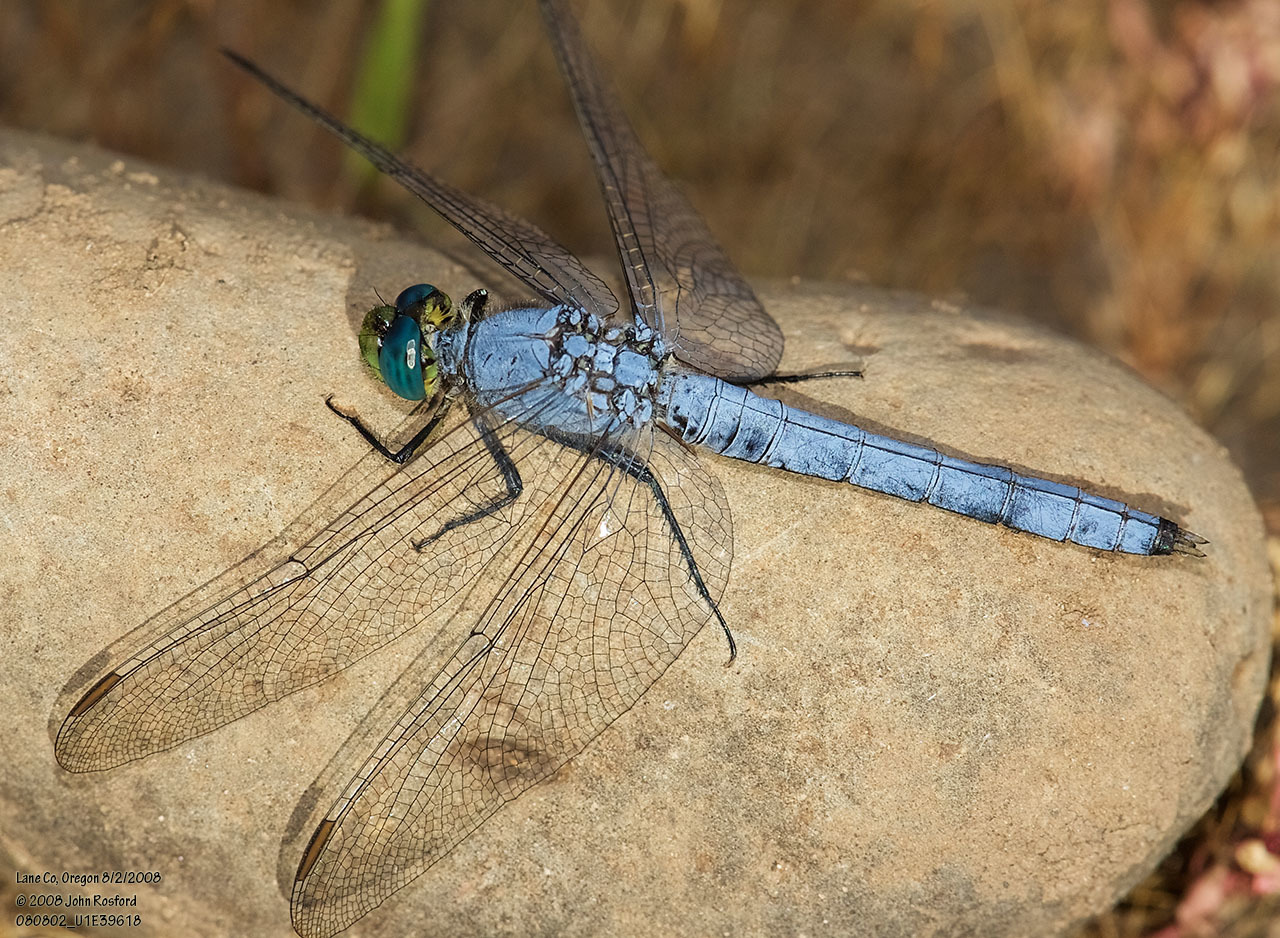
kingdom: Animalia
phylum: Arthropoda
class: Insecta
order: Odonata
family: Libellulidae
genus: Erythemis
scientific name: Erythemis collocata
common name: Western pondhawk
